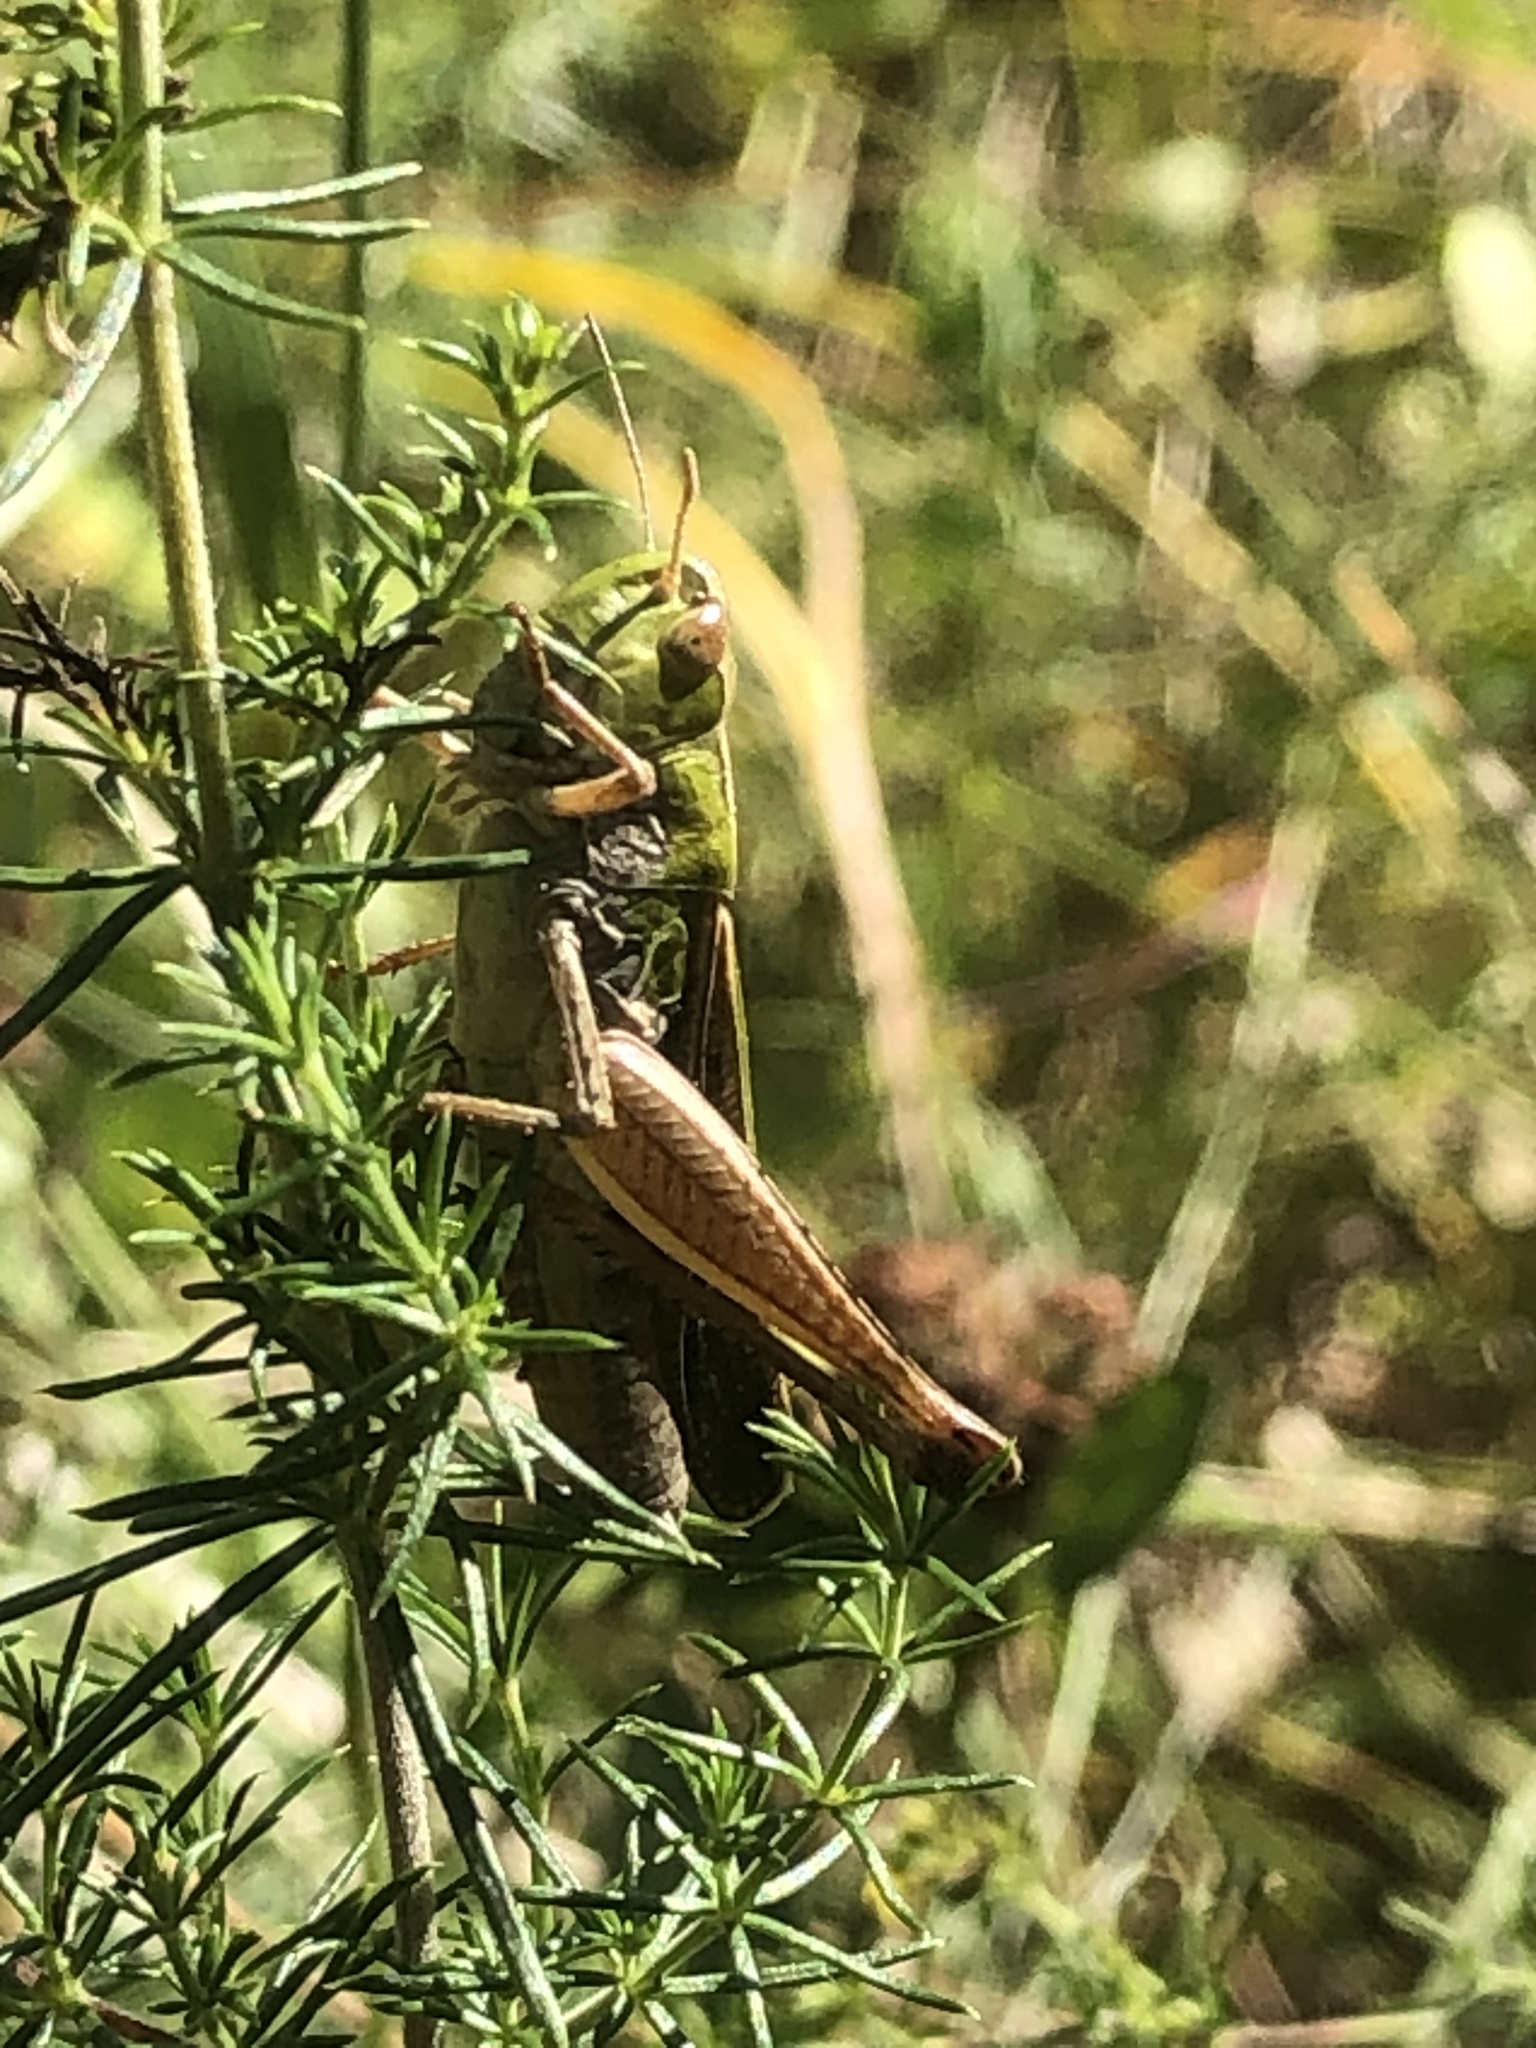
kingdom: Animalia
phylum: Arthropoda
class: Insecta
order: Orthoptera
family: Acrididae
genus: Stenobothrus
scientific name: Stenobothrus lineatus
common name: Stripe-winged grasshopper
